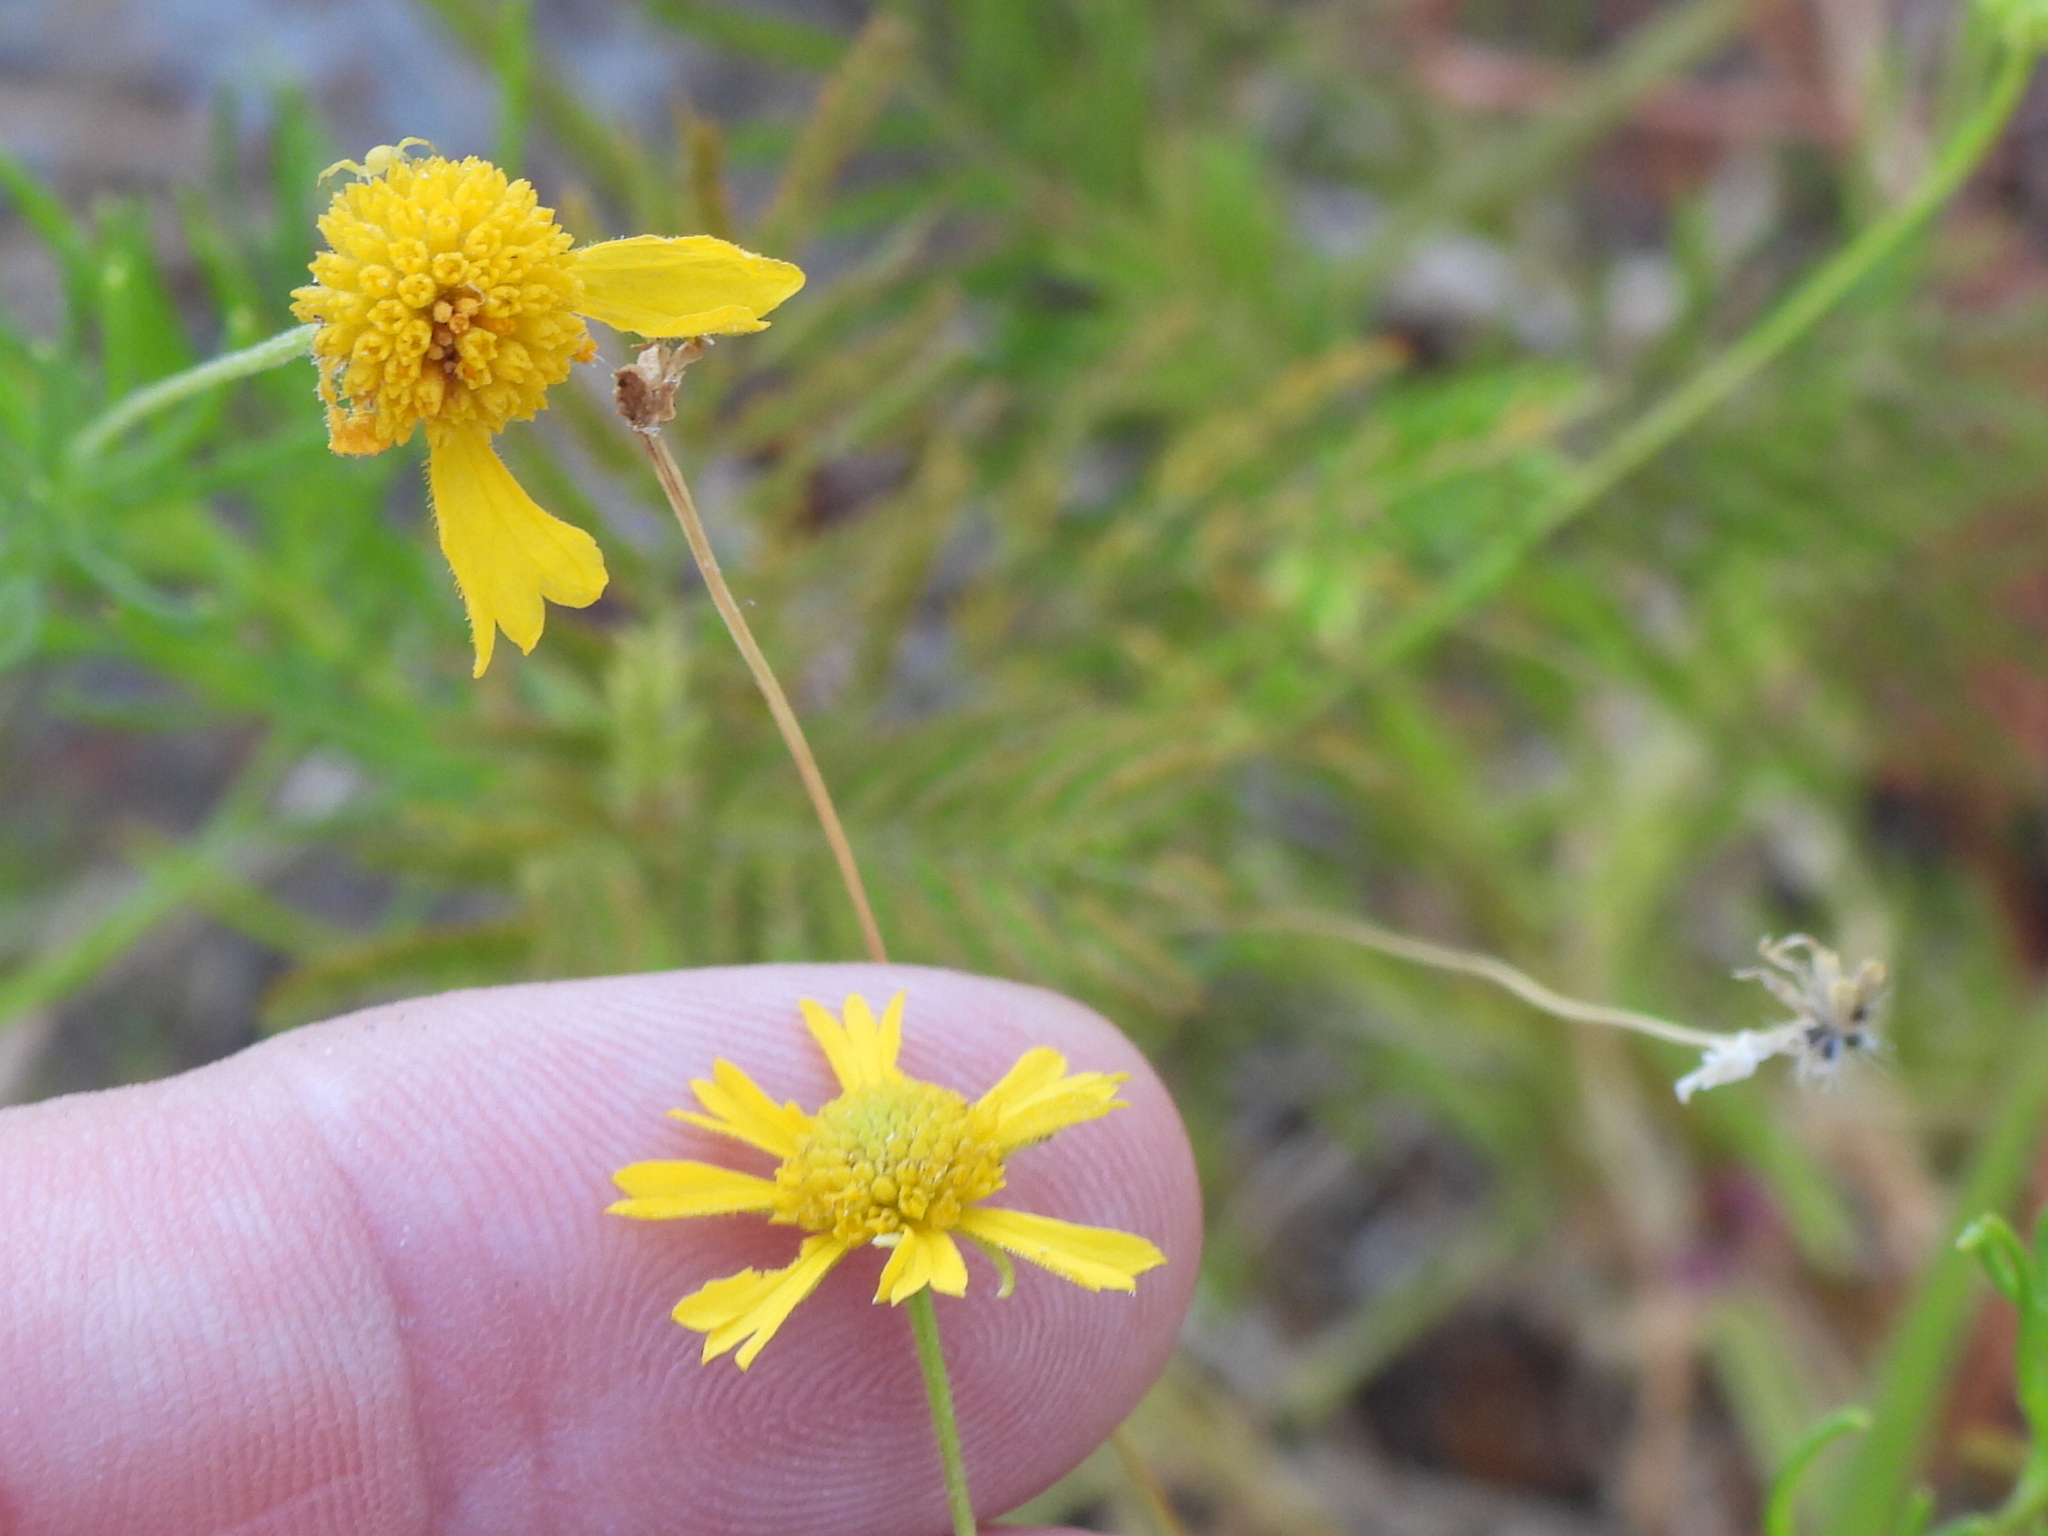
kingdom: Plantae
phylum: Tracheophyta
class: Magnoliopsida
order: Asterales
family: Asteraceae
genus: Helenium
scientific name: Helenium amarum
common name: Bitter sneezeweed
